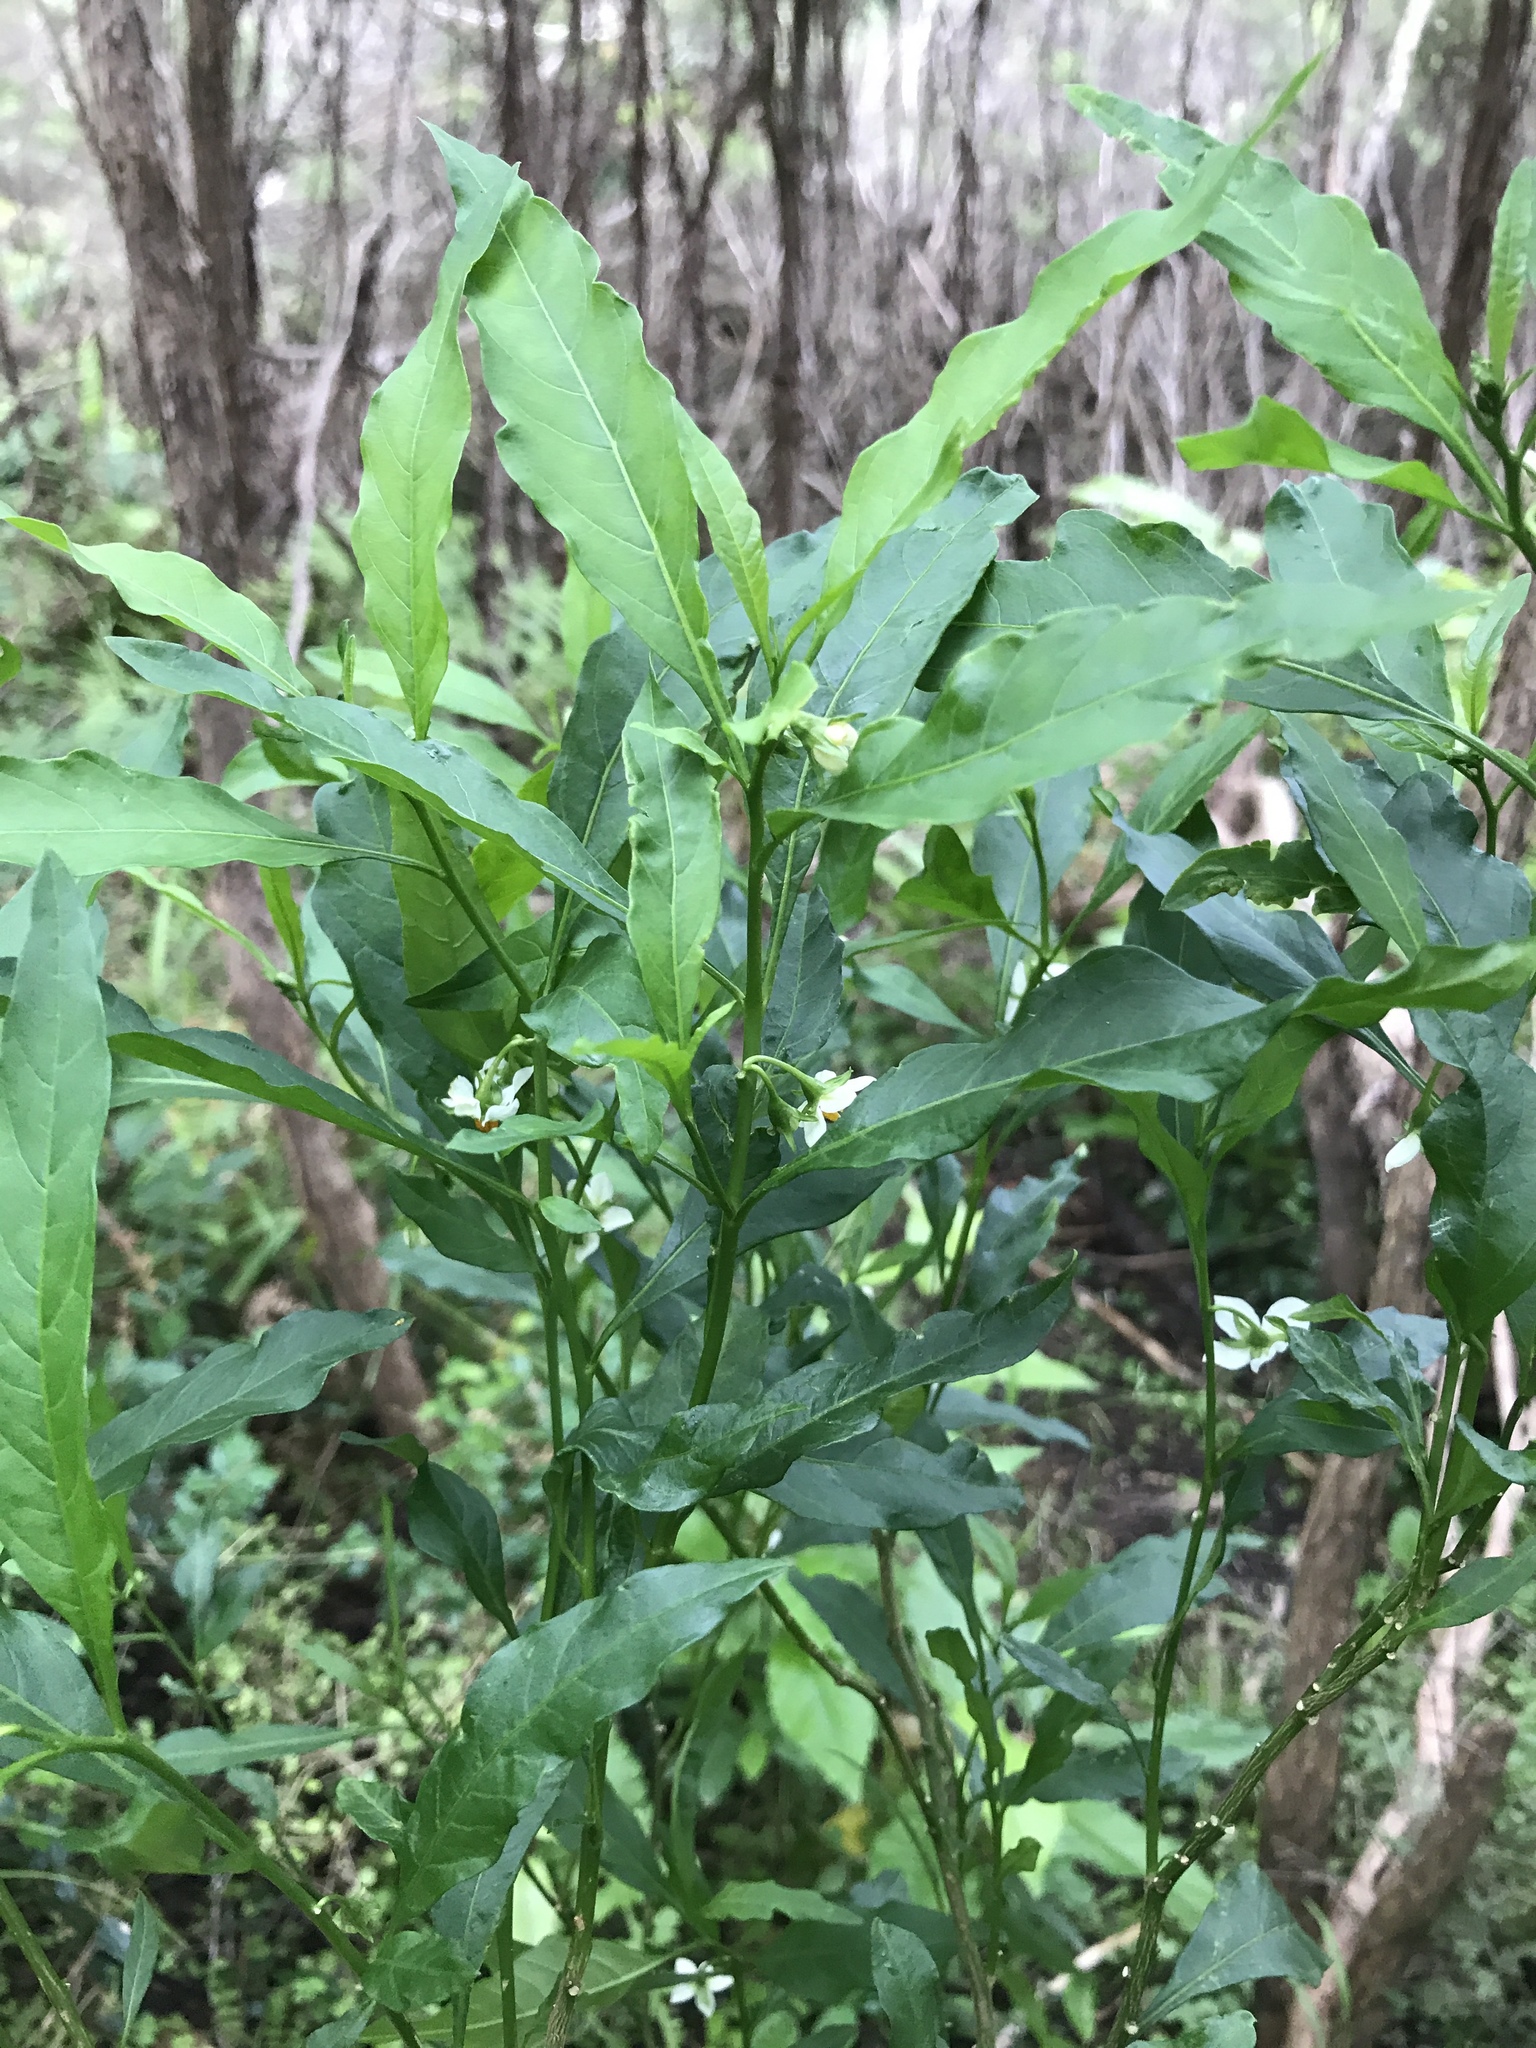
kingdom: Plantae
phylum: Tracheophyta
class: Magnoliopsida
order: Solanales
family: Solanaceae
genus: Solanum
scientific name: Solanum pseudocapsicum
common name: Jerusalem cherry
